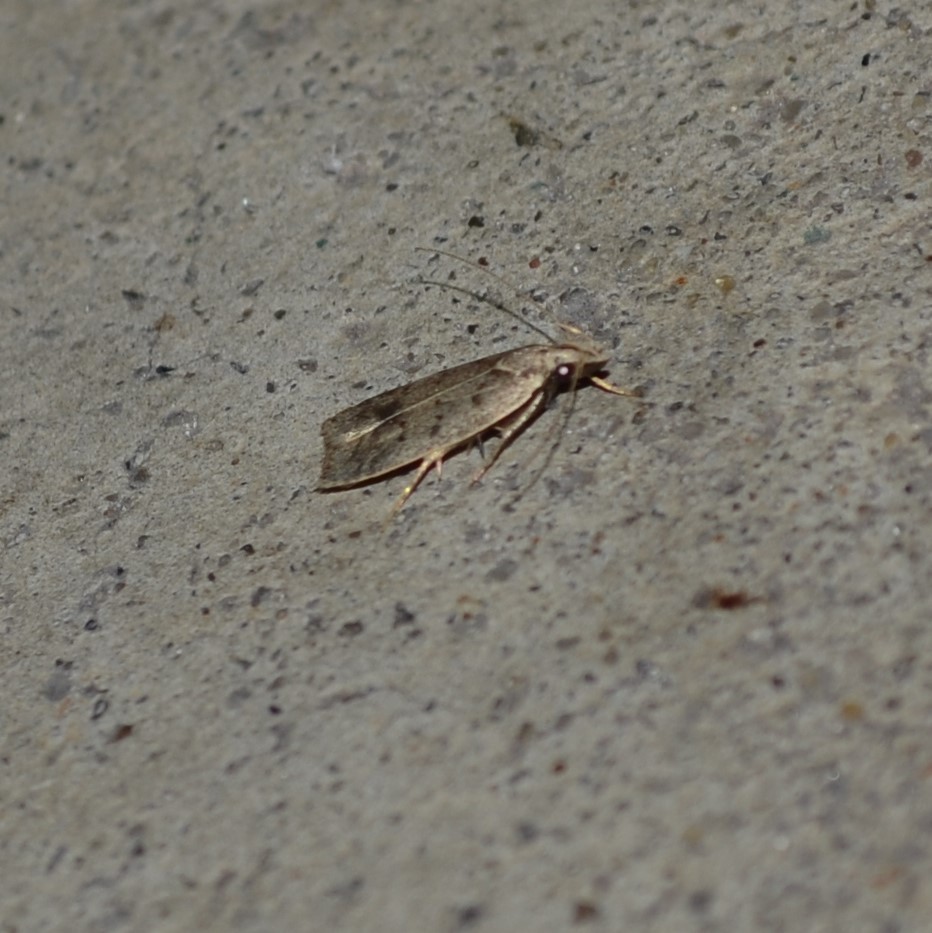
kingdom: Animalia
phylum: Arthropoda
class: Insecta
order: Lepidoptera
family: Gelechiidae
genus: Dichomeris
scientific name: Dichomeris citrifoliella
